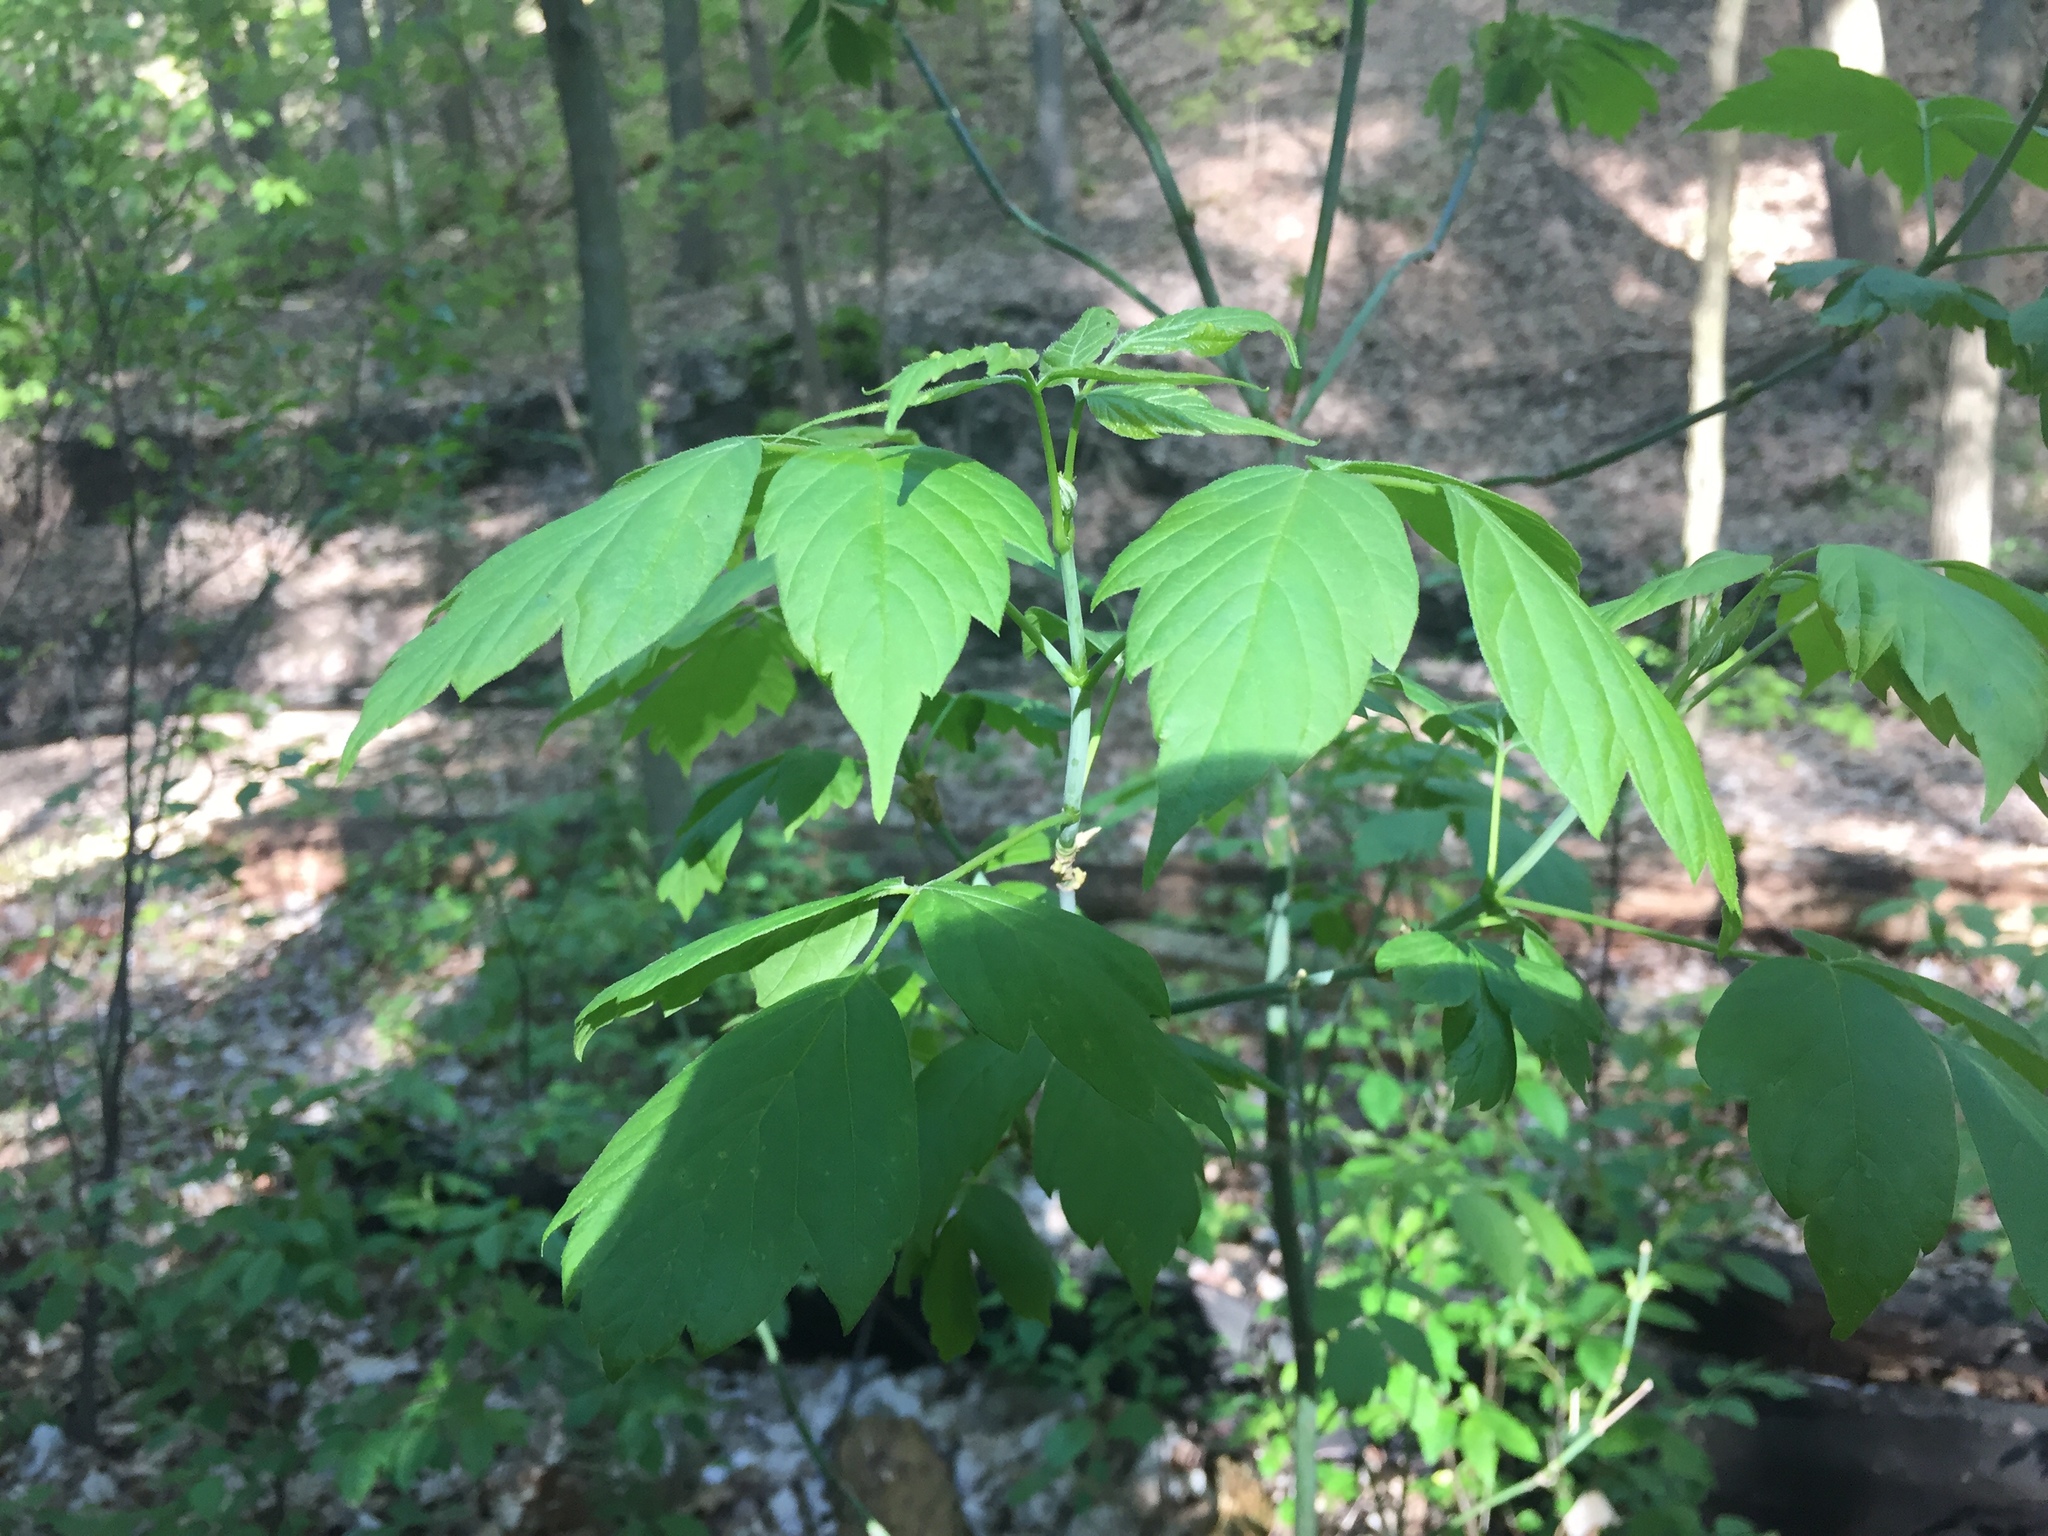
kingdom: Plantae
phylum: Tracheophyta
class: Magnoliopsida
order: Sapindales
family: Sapindaceae
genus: Acer
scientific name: Acer negundo
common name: Ashleaf maple
